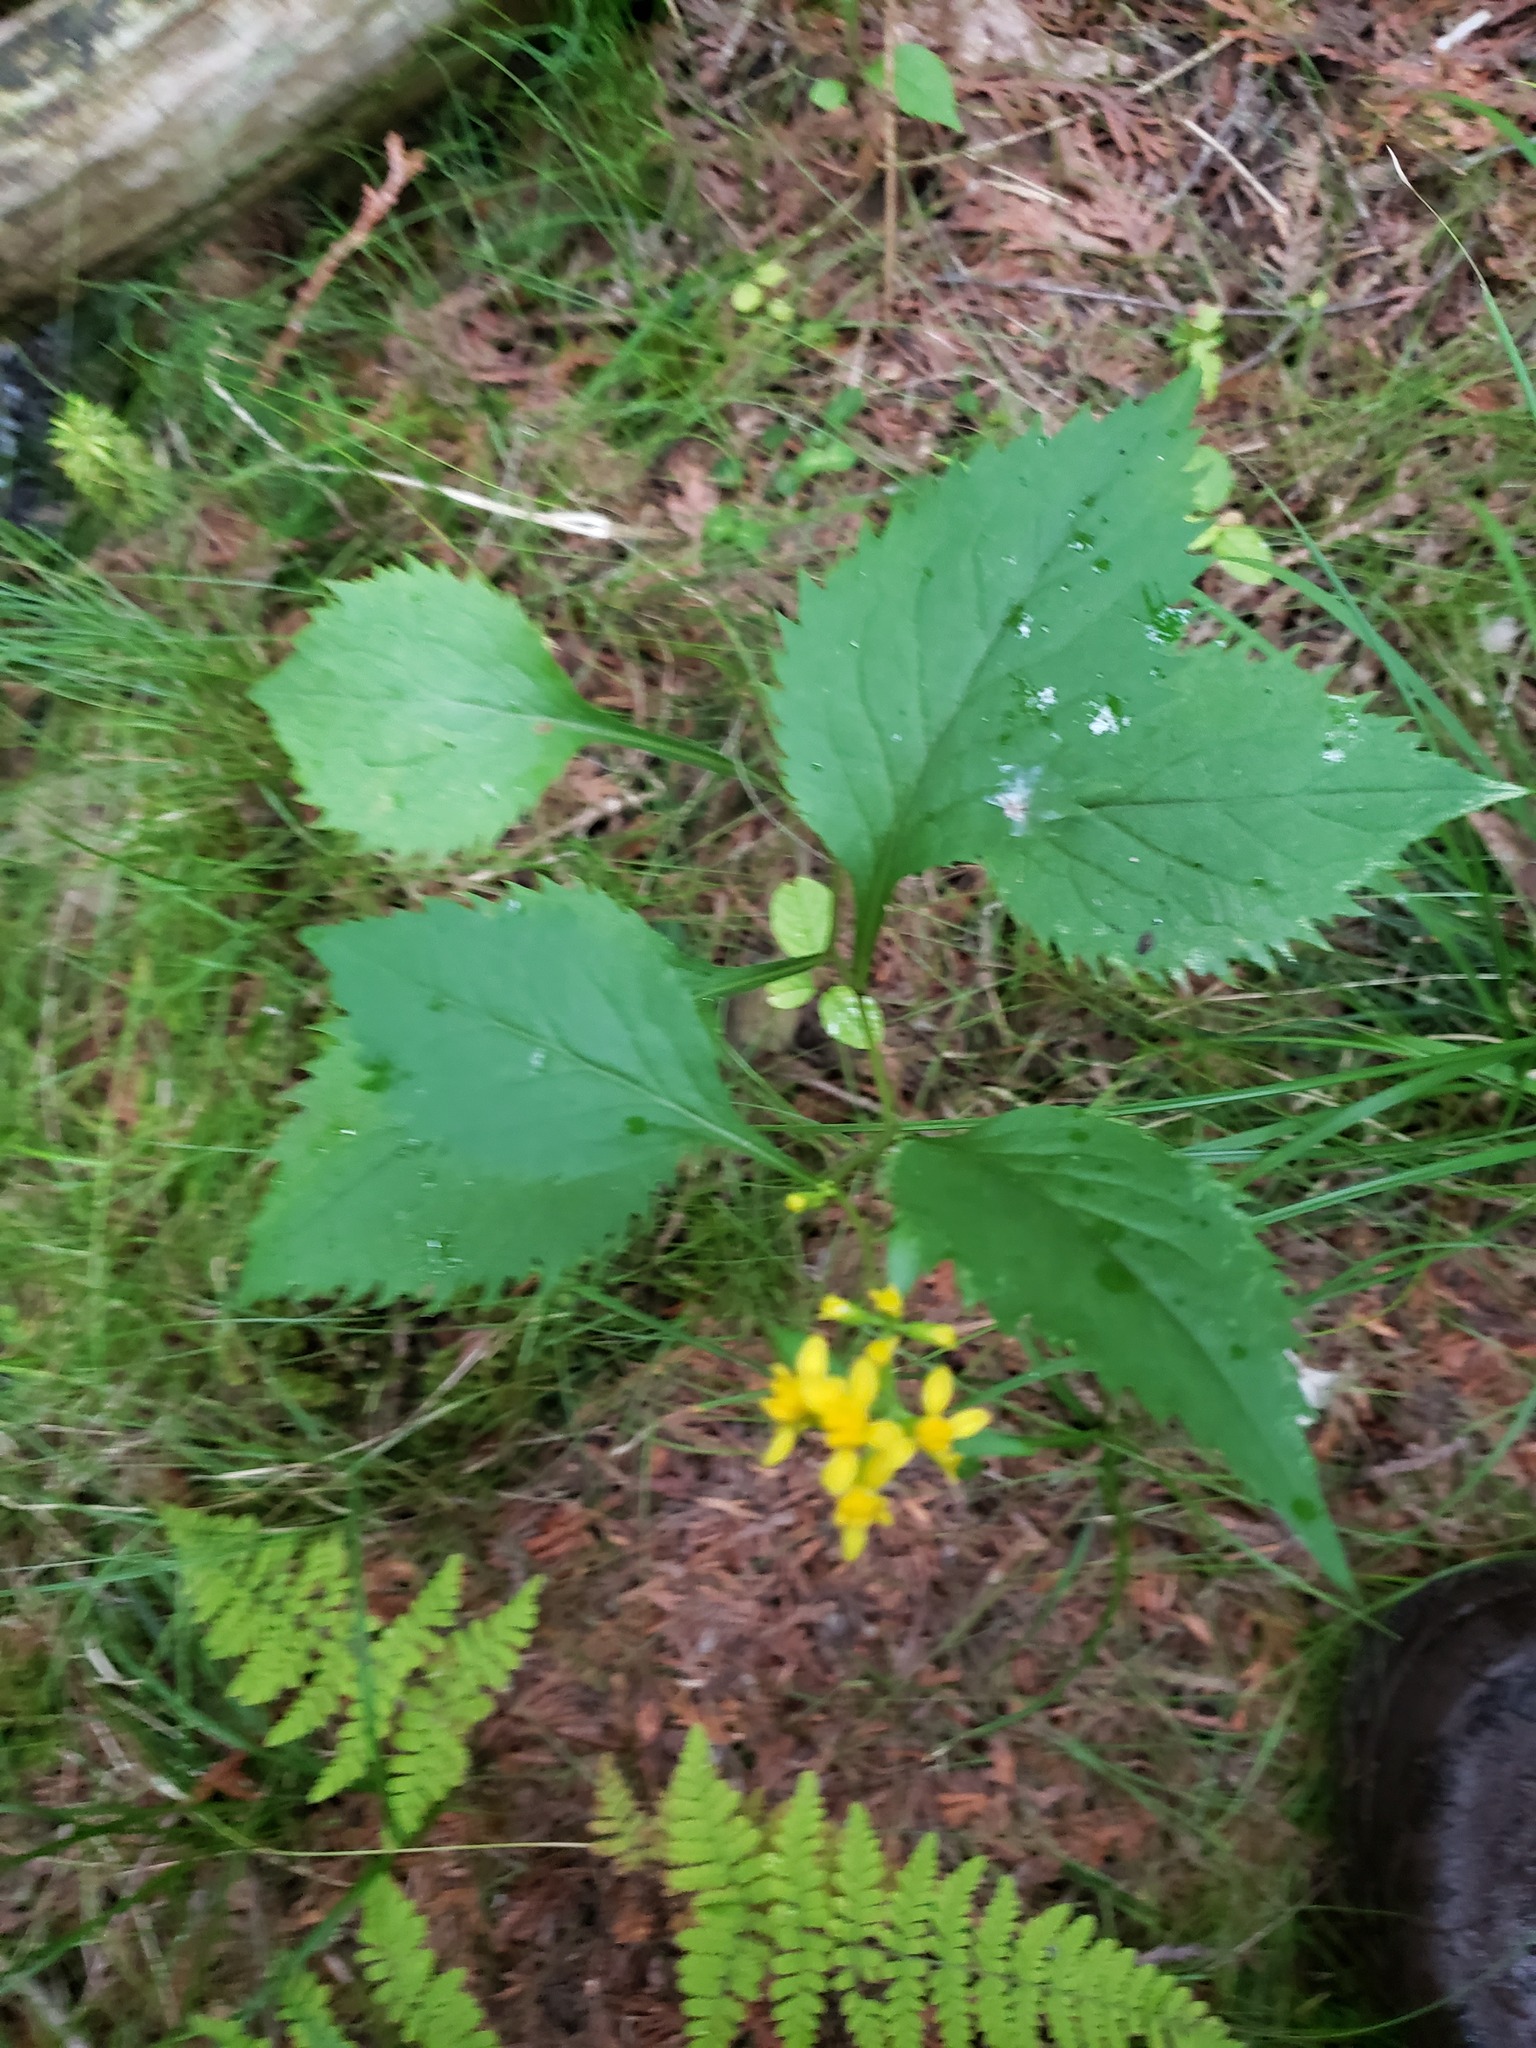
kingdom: Plantae
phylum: Tracheophyta
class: Magnoliopsida
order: Asterales
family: Asteraceae
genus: Solidago
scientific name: Solidago flexicaulis
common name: Zig-zag goldenrod
